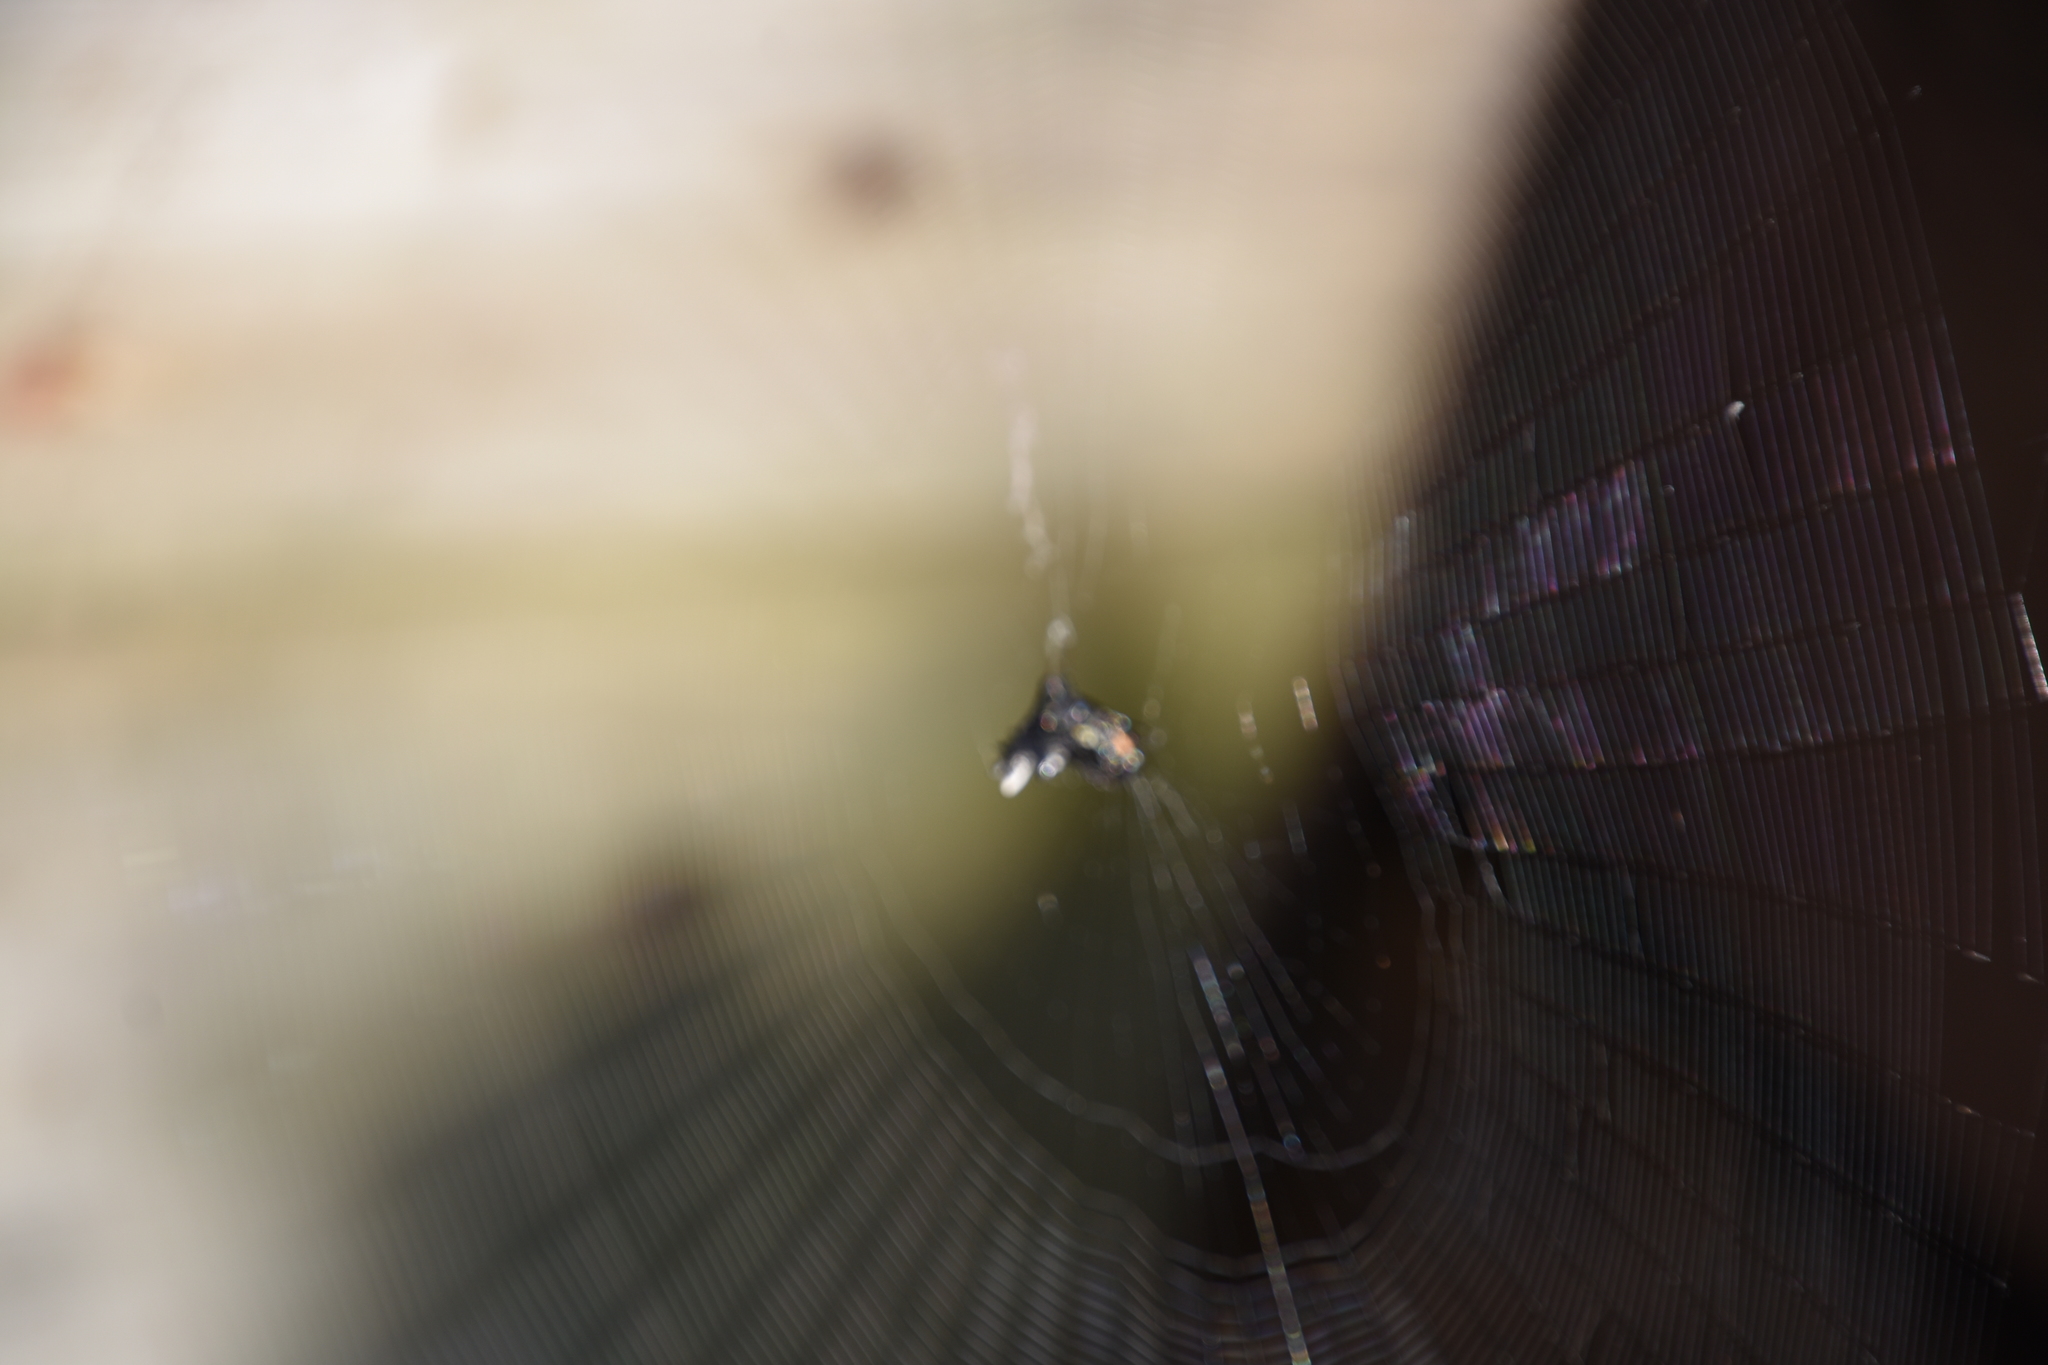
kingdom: Animalia
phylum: Arthropoda
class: Arachnida
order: Araneae
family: Araneidae
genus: Micrathena
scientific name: Micrathena gracilis
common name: Orb weavers
